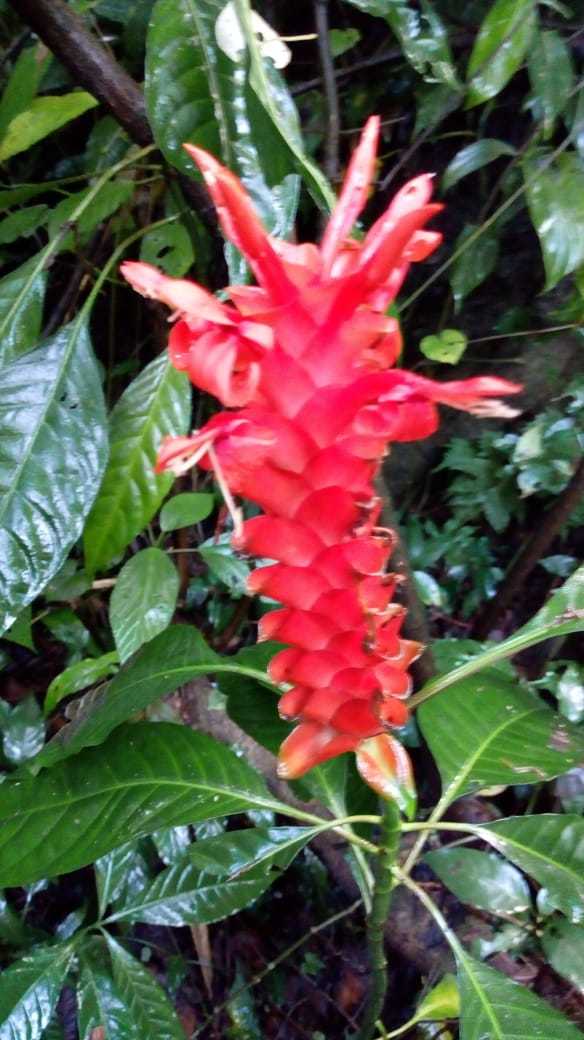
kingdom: Plantae
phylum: Tracheophyta
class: Magnoliopsida
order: Lamiales
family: Acanthaceae
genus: Aphelandra
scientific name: Aphelandra speciosa
